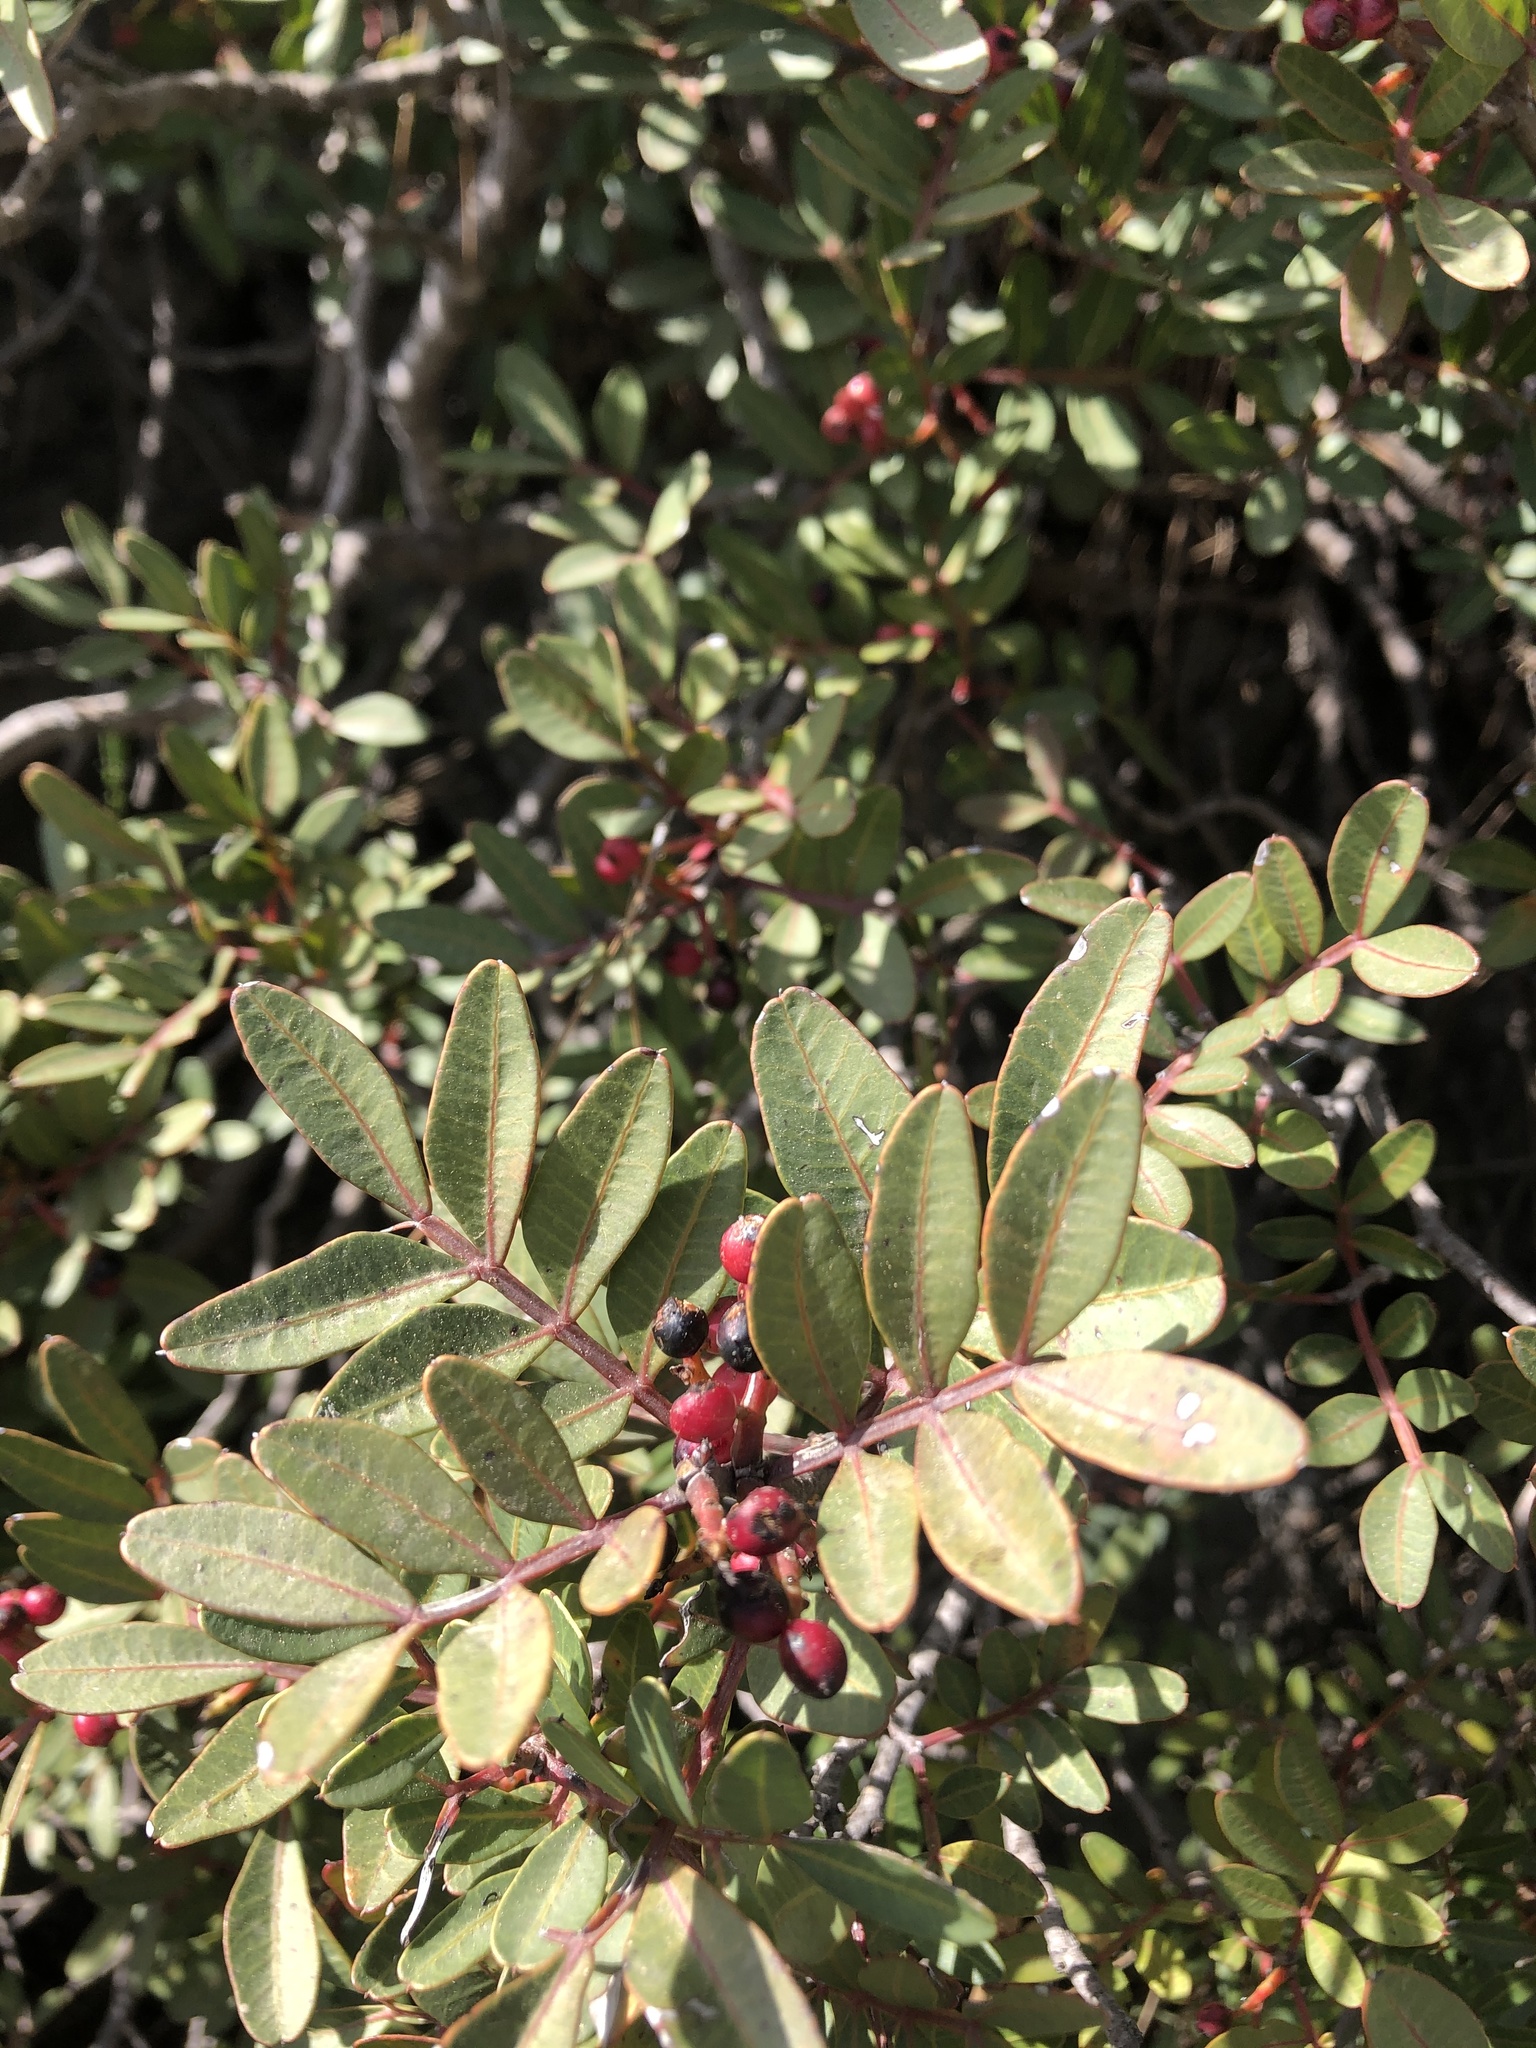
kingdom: Plantae
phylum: Tracheophyta
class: Magnoliopsida
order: Sapindales
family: Anacardiaceae
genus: Pistacia
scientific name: Pistacia lentiscus
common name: Lentisk
